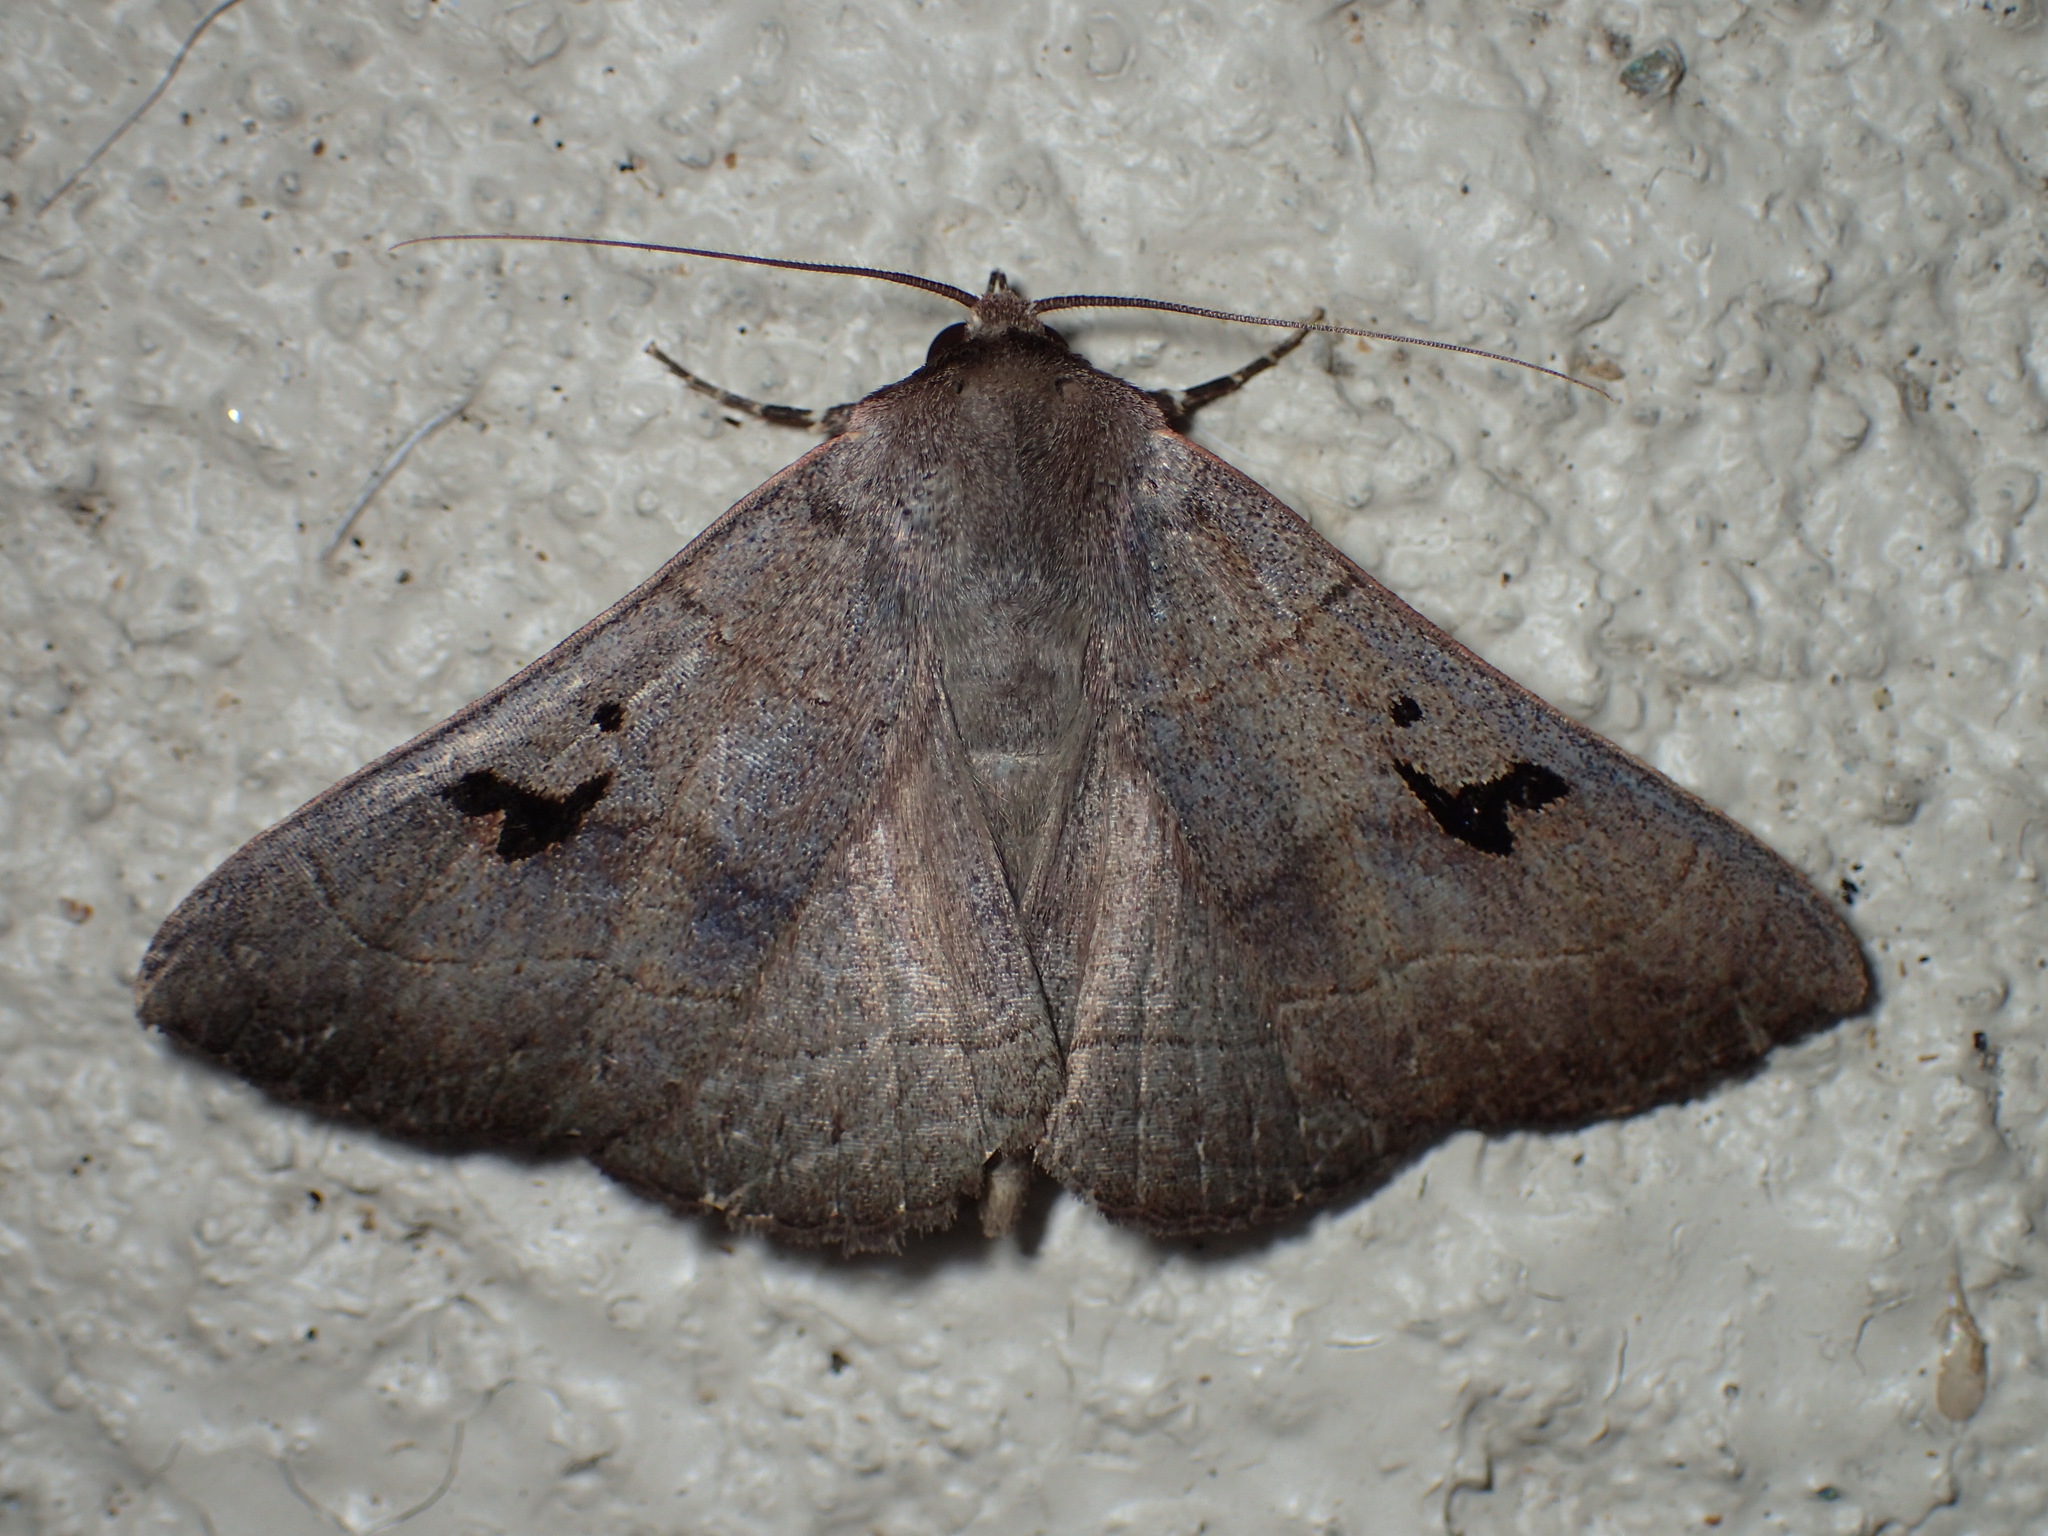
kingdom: Animalia
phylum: Arthropoda
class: Insecta
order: Lepidoptera
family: Erebidae
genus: Panopoda
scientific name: Panopoda carneicosta
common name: Brown panopoda moth
